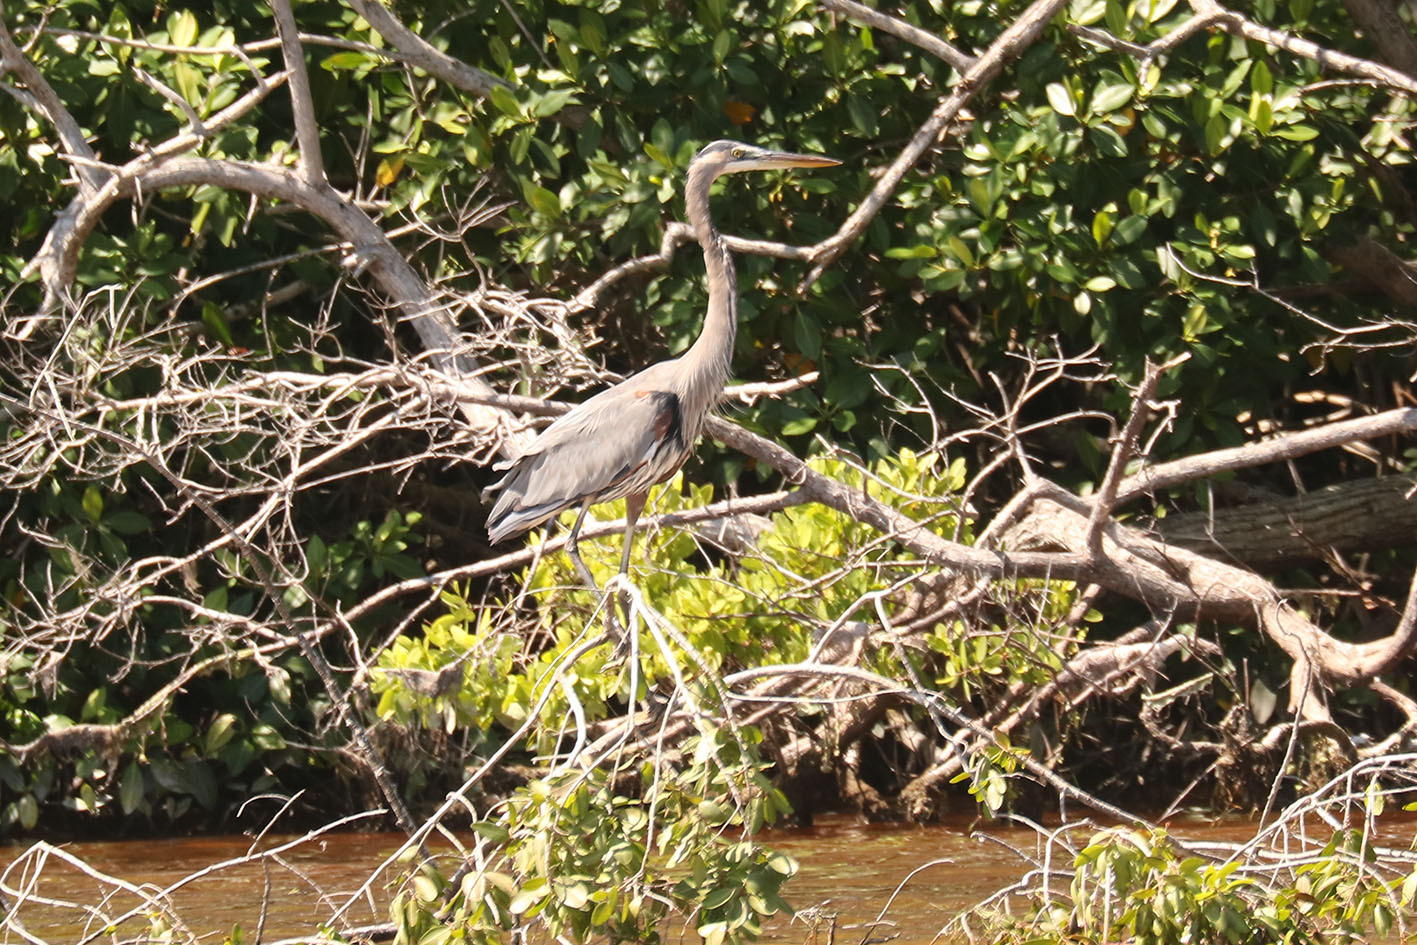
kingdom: Animalia
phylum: Chordata
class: Aves
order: Pelecaniformes
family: Ardeidae
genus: Ardea
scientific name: Ardea herodias
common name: Great blue heron
